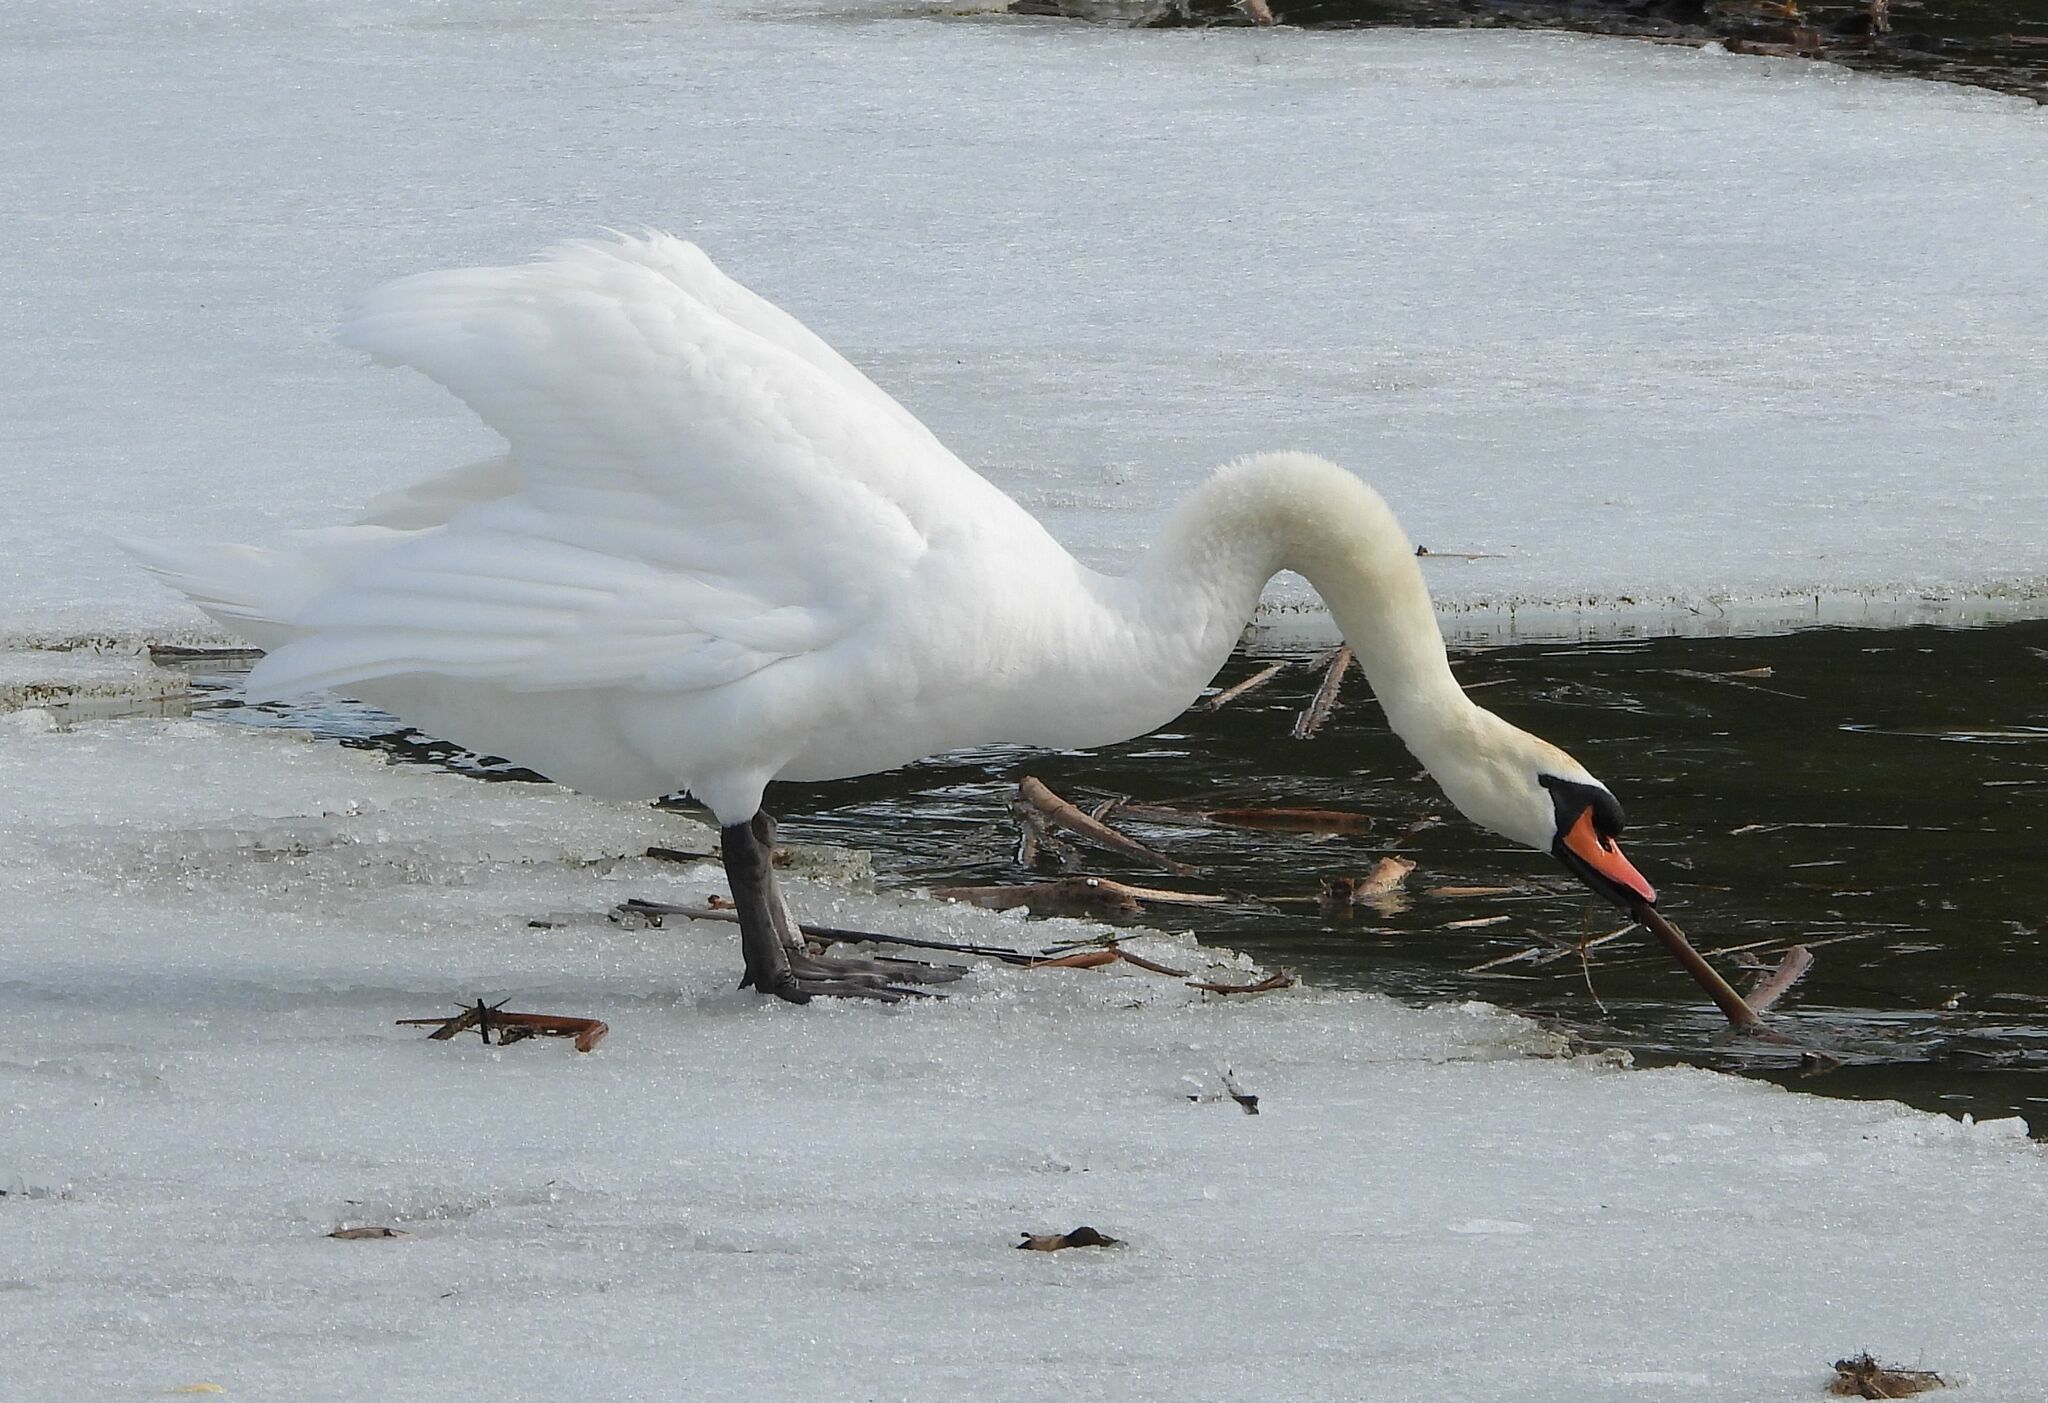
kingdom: Animalia
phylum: Chordata
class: Aves
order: Anseriformes
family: Anatidae
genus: Cygnus
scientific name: Cygnus olor
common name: Mute swan
